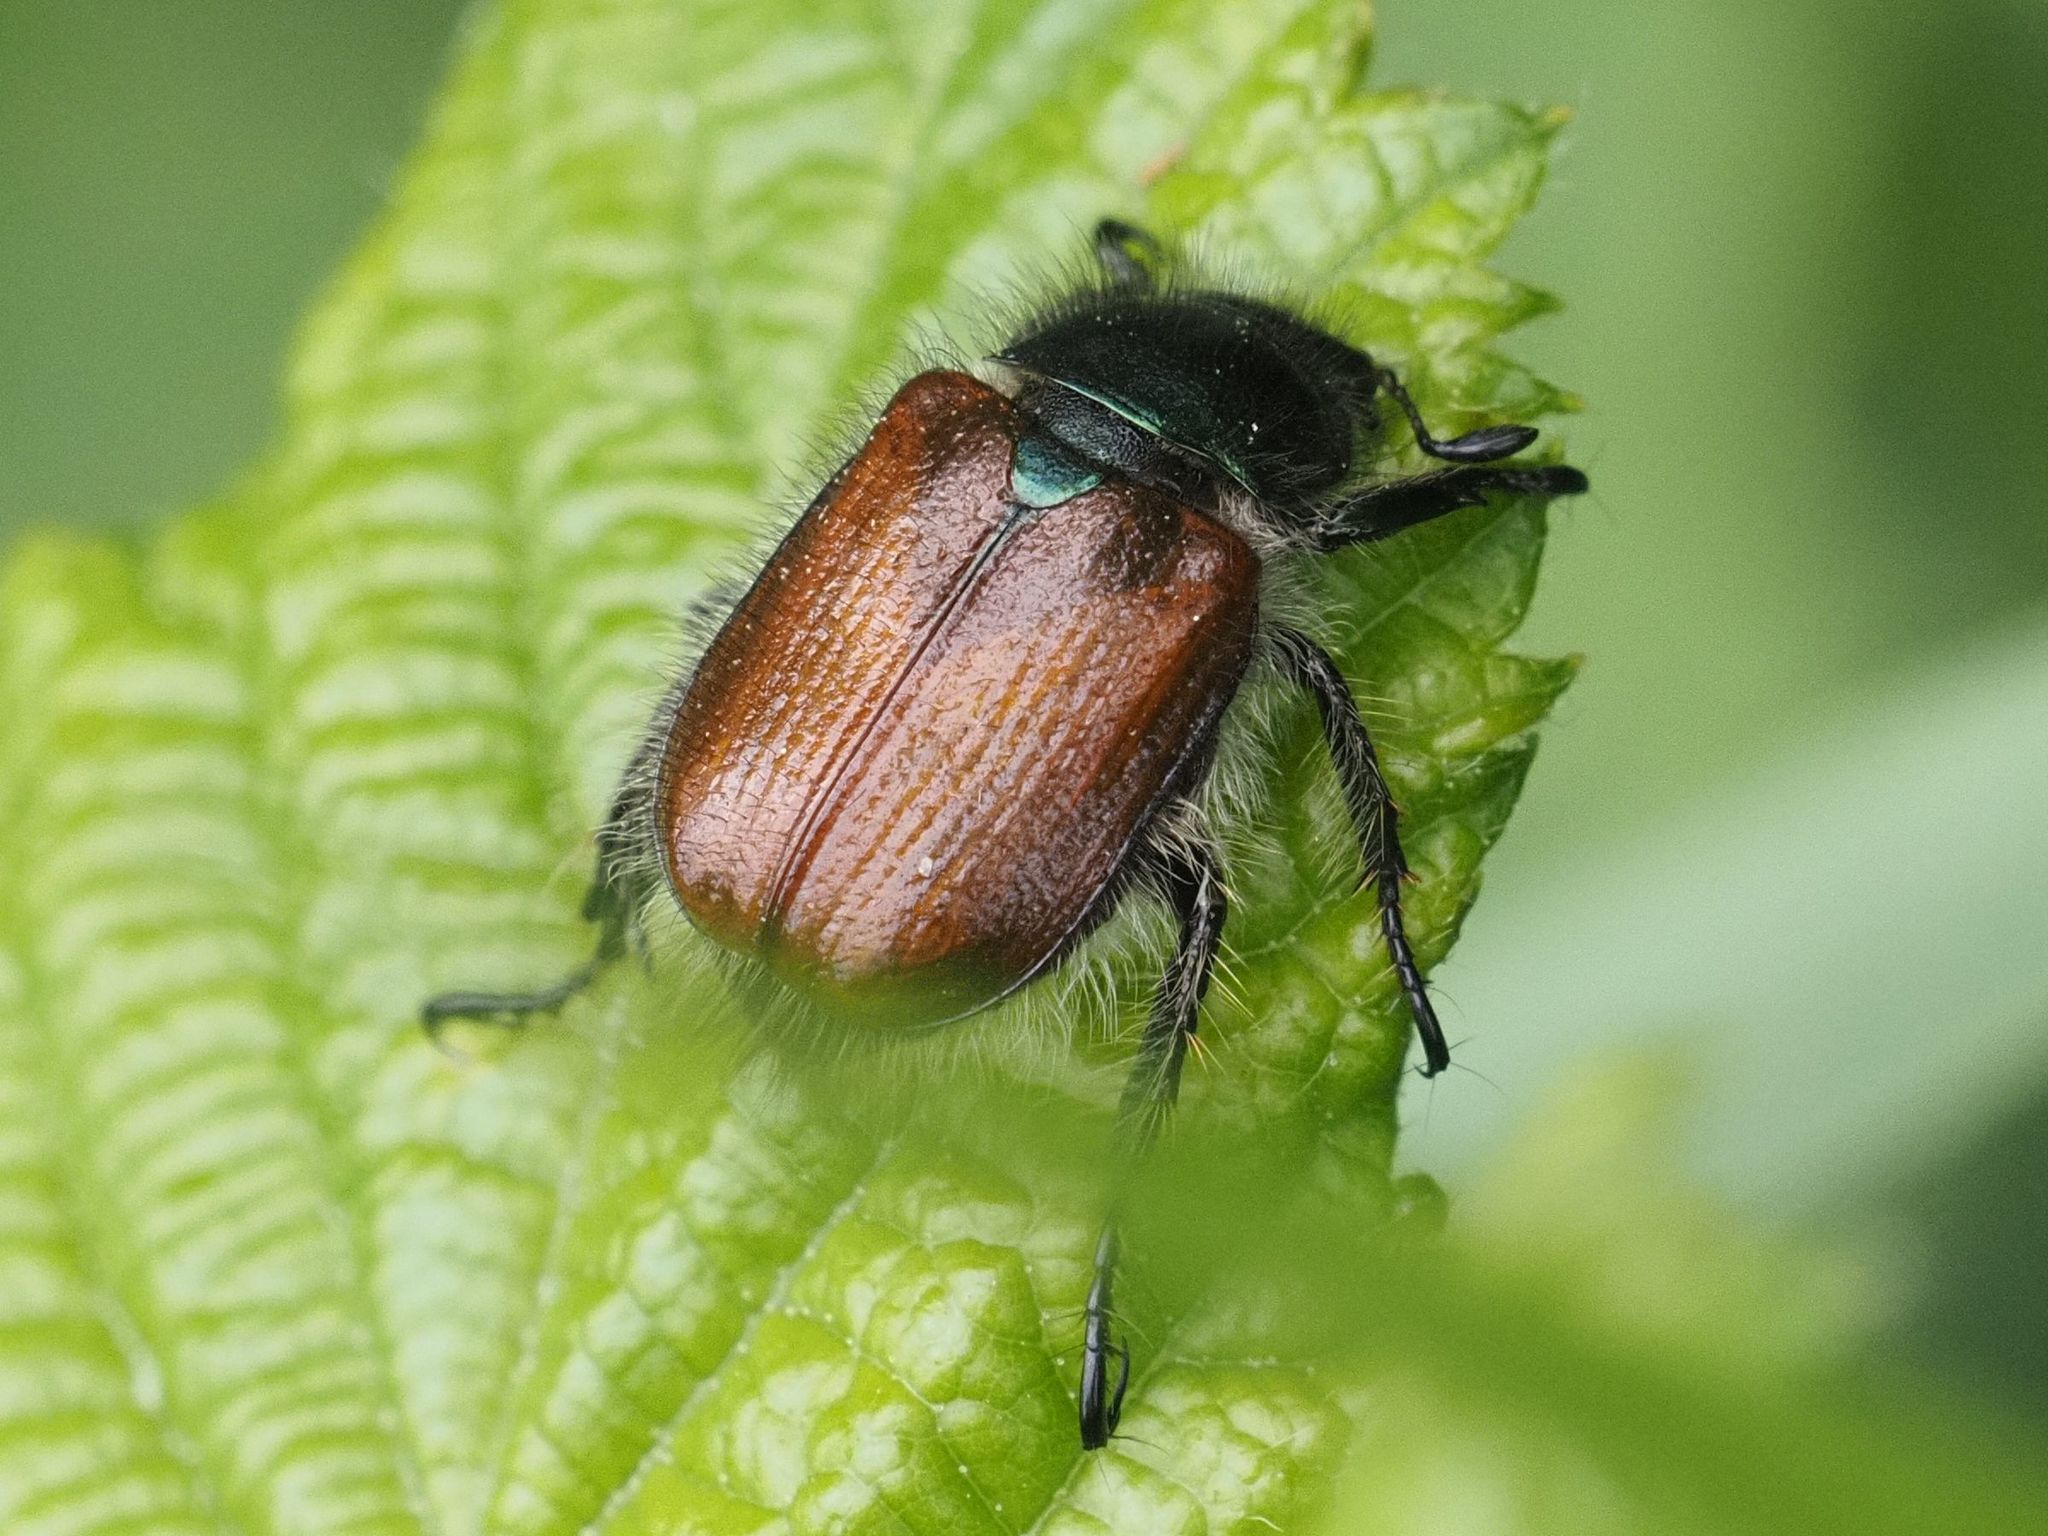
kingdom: Animalia
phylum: Arthropoda
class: Insecta
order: Coleoptera
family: Scarabaeidae
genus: Phyllopertha
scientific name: Phyllopertha horticola
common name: Garden chafer
